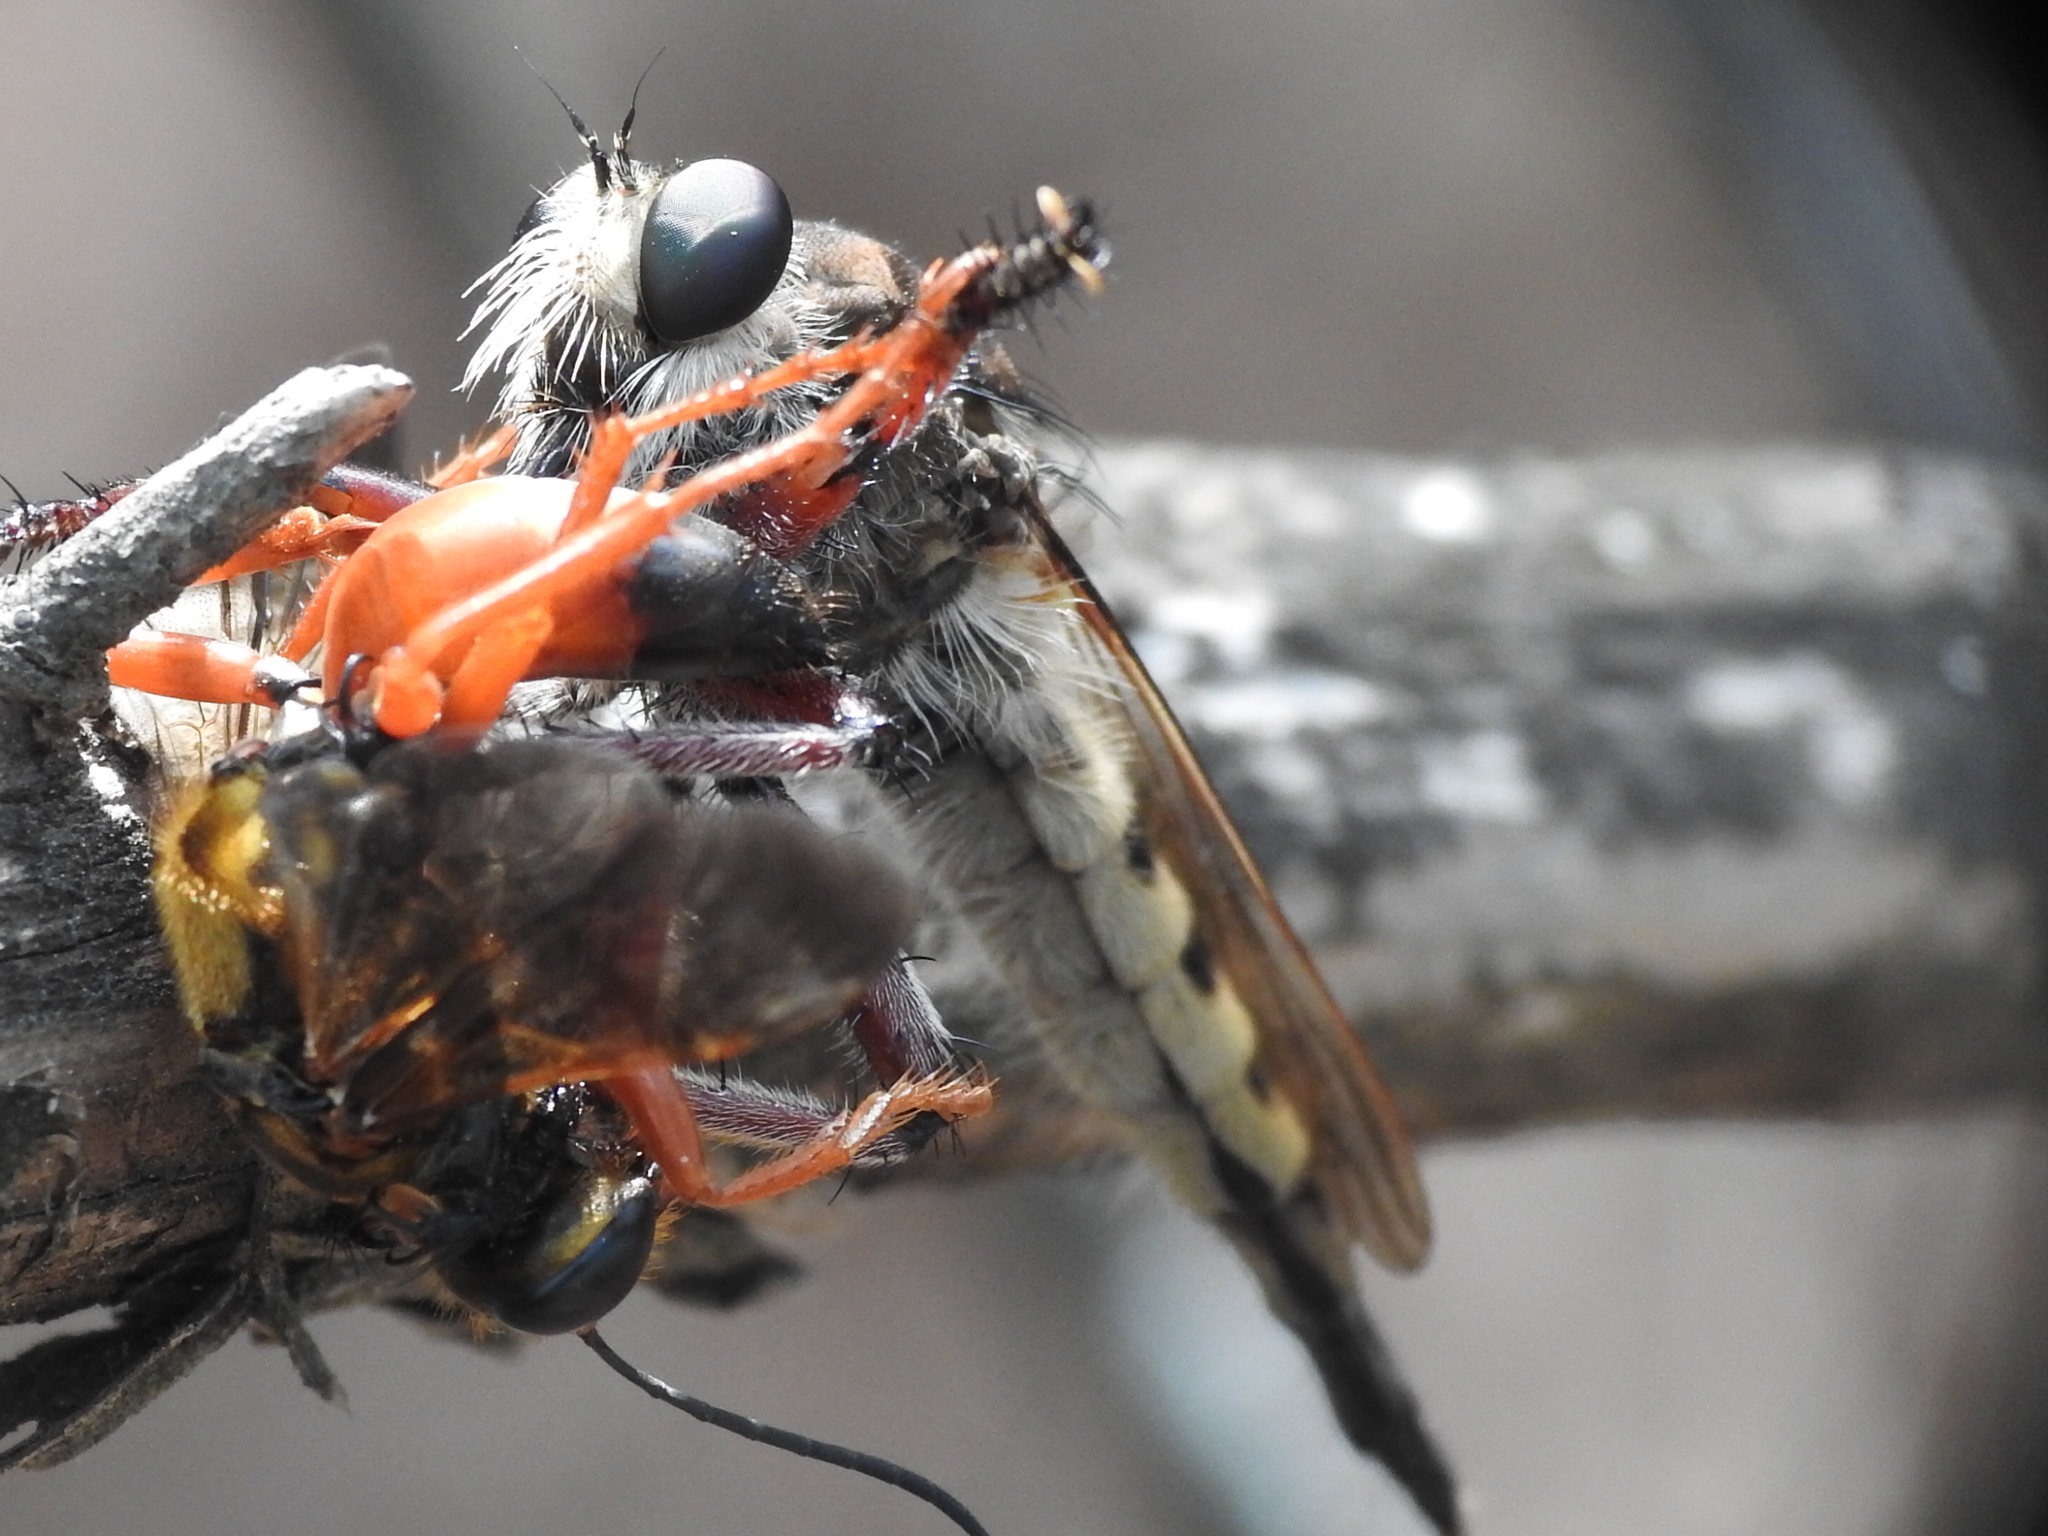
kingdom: Animalia
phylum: Arthropoda
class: Insecta
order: Diptera
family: Asilidae
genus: Promachus
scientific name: Promachus hinei
